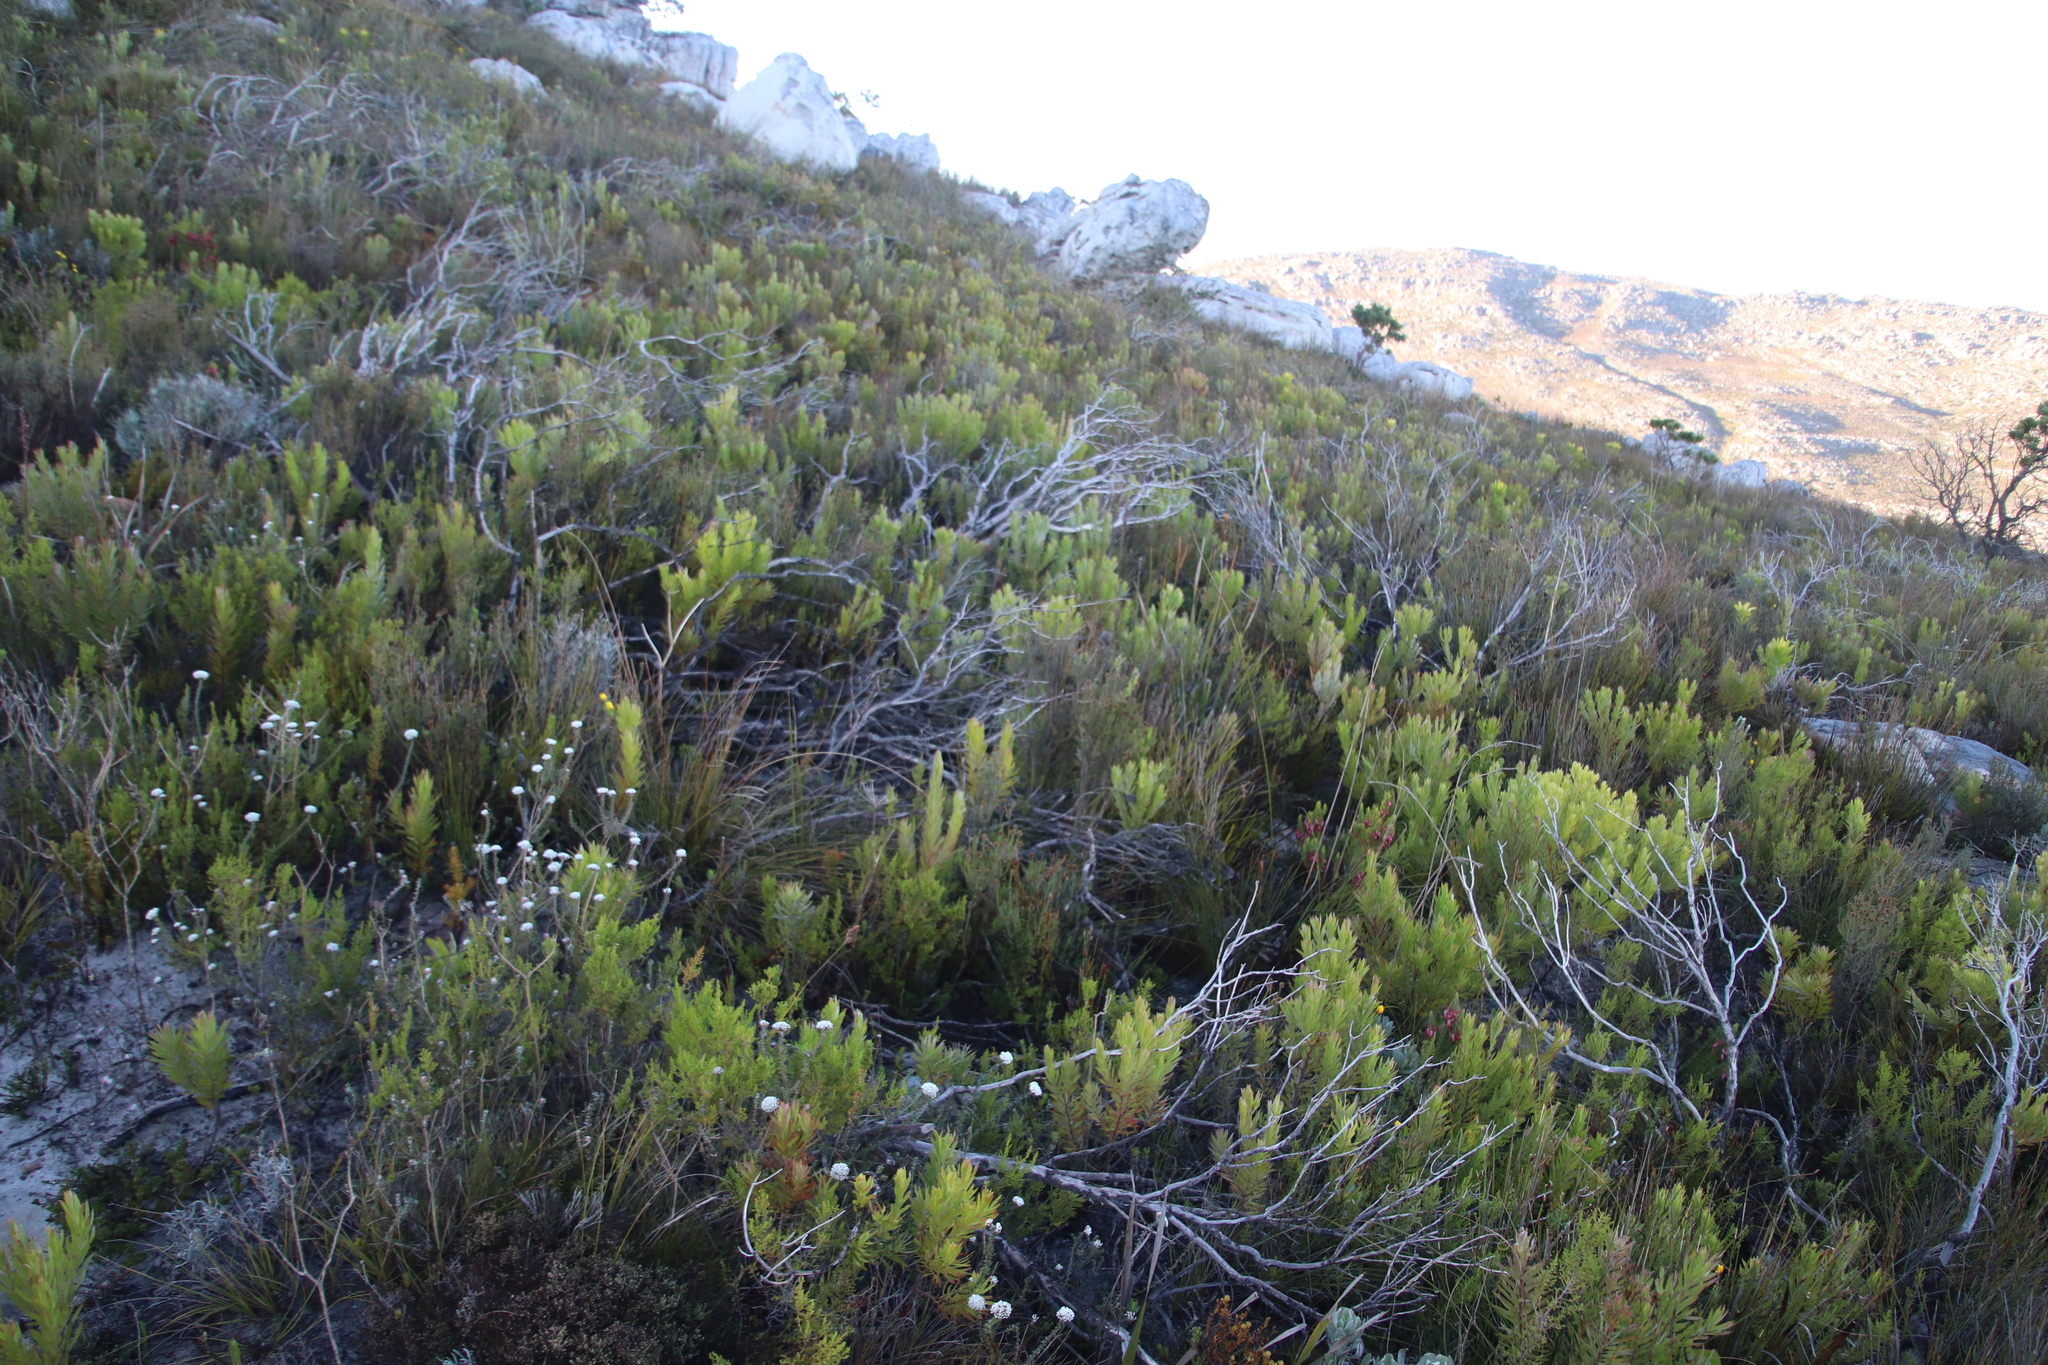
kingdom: Plantae
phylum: Tracheophyta
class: Magnoliopsida
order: Proteales
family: Proteaceae
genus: Leucadendron
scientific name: Leucadendron xanthoconus
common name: Sickle-leaf conebush
